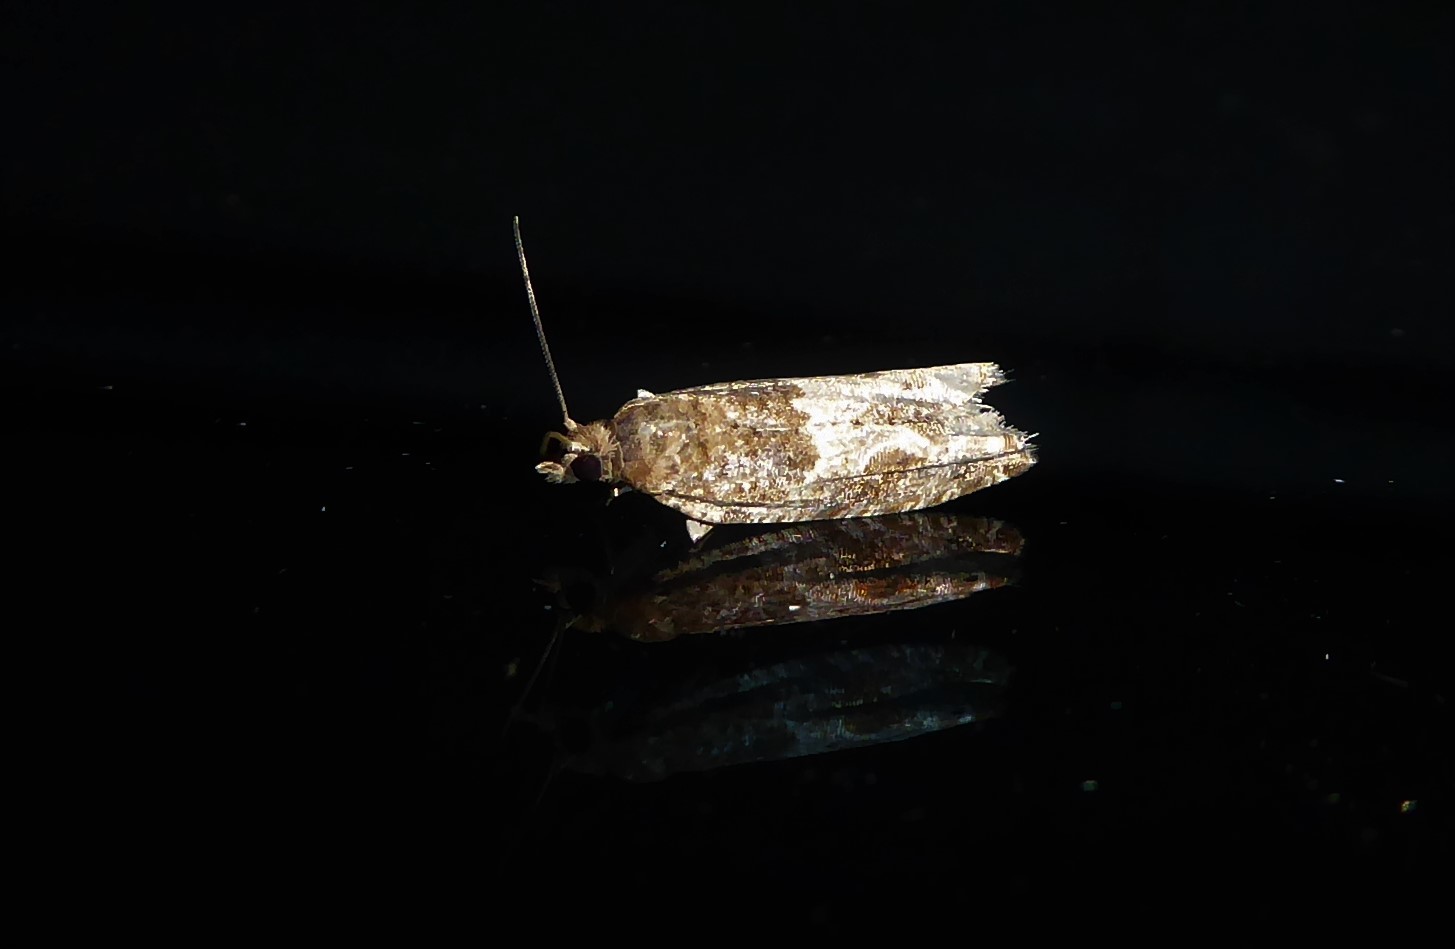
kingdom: Animalia
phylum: Arthropoda
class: Insecta
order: Lepidoptera
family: Tortricidae
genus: Crocidosema
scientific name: Crocidosema plebejana
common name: Southern bell
